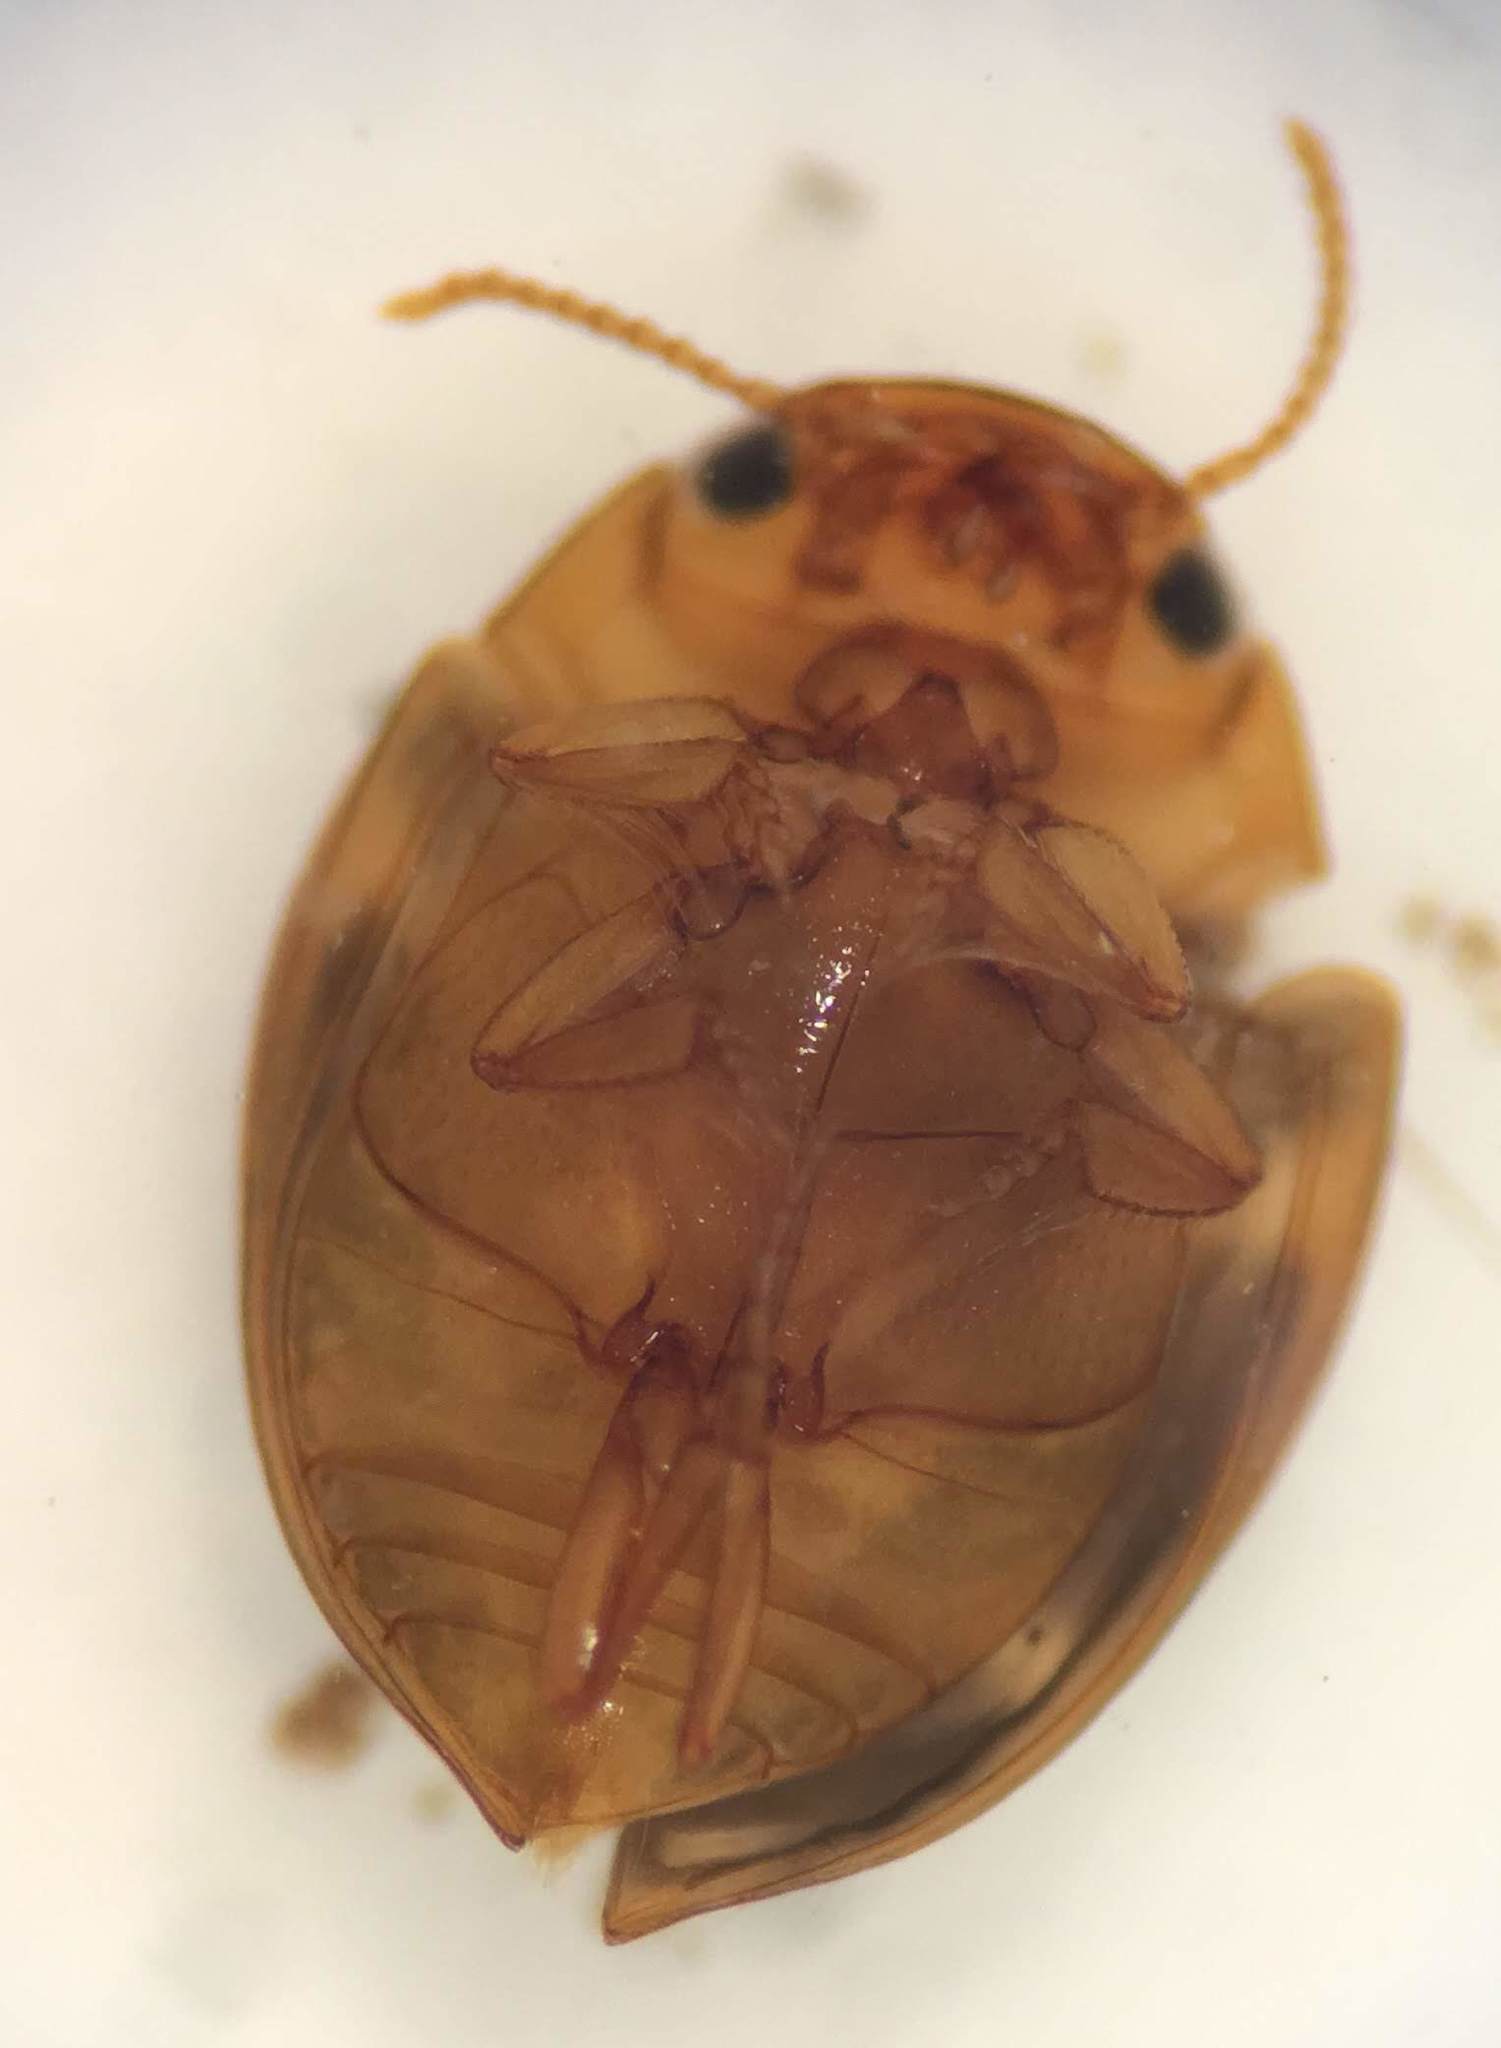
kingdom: Animalia
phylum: Arthropoda
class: Insecta
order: Coleoptera
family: Dytiscidae
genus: Hydrovatus
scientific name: Hydrovatus pustulatus
